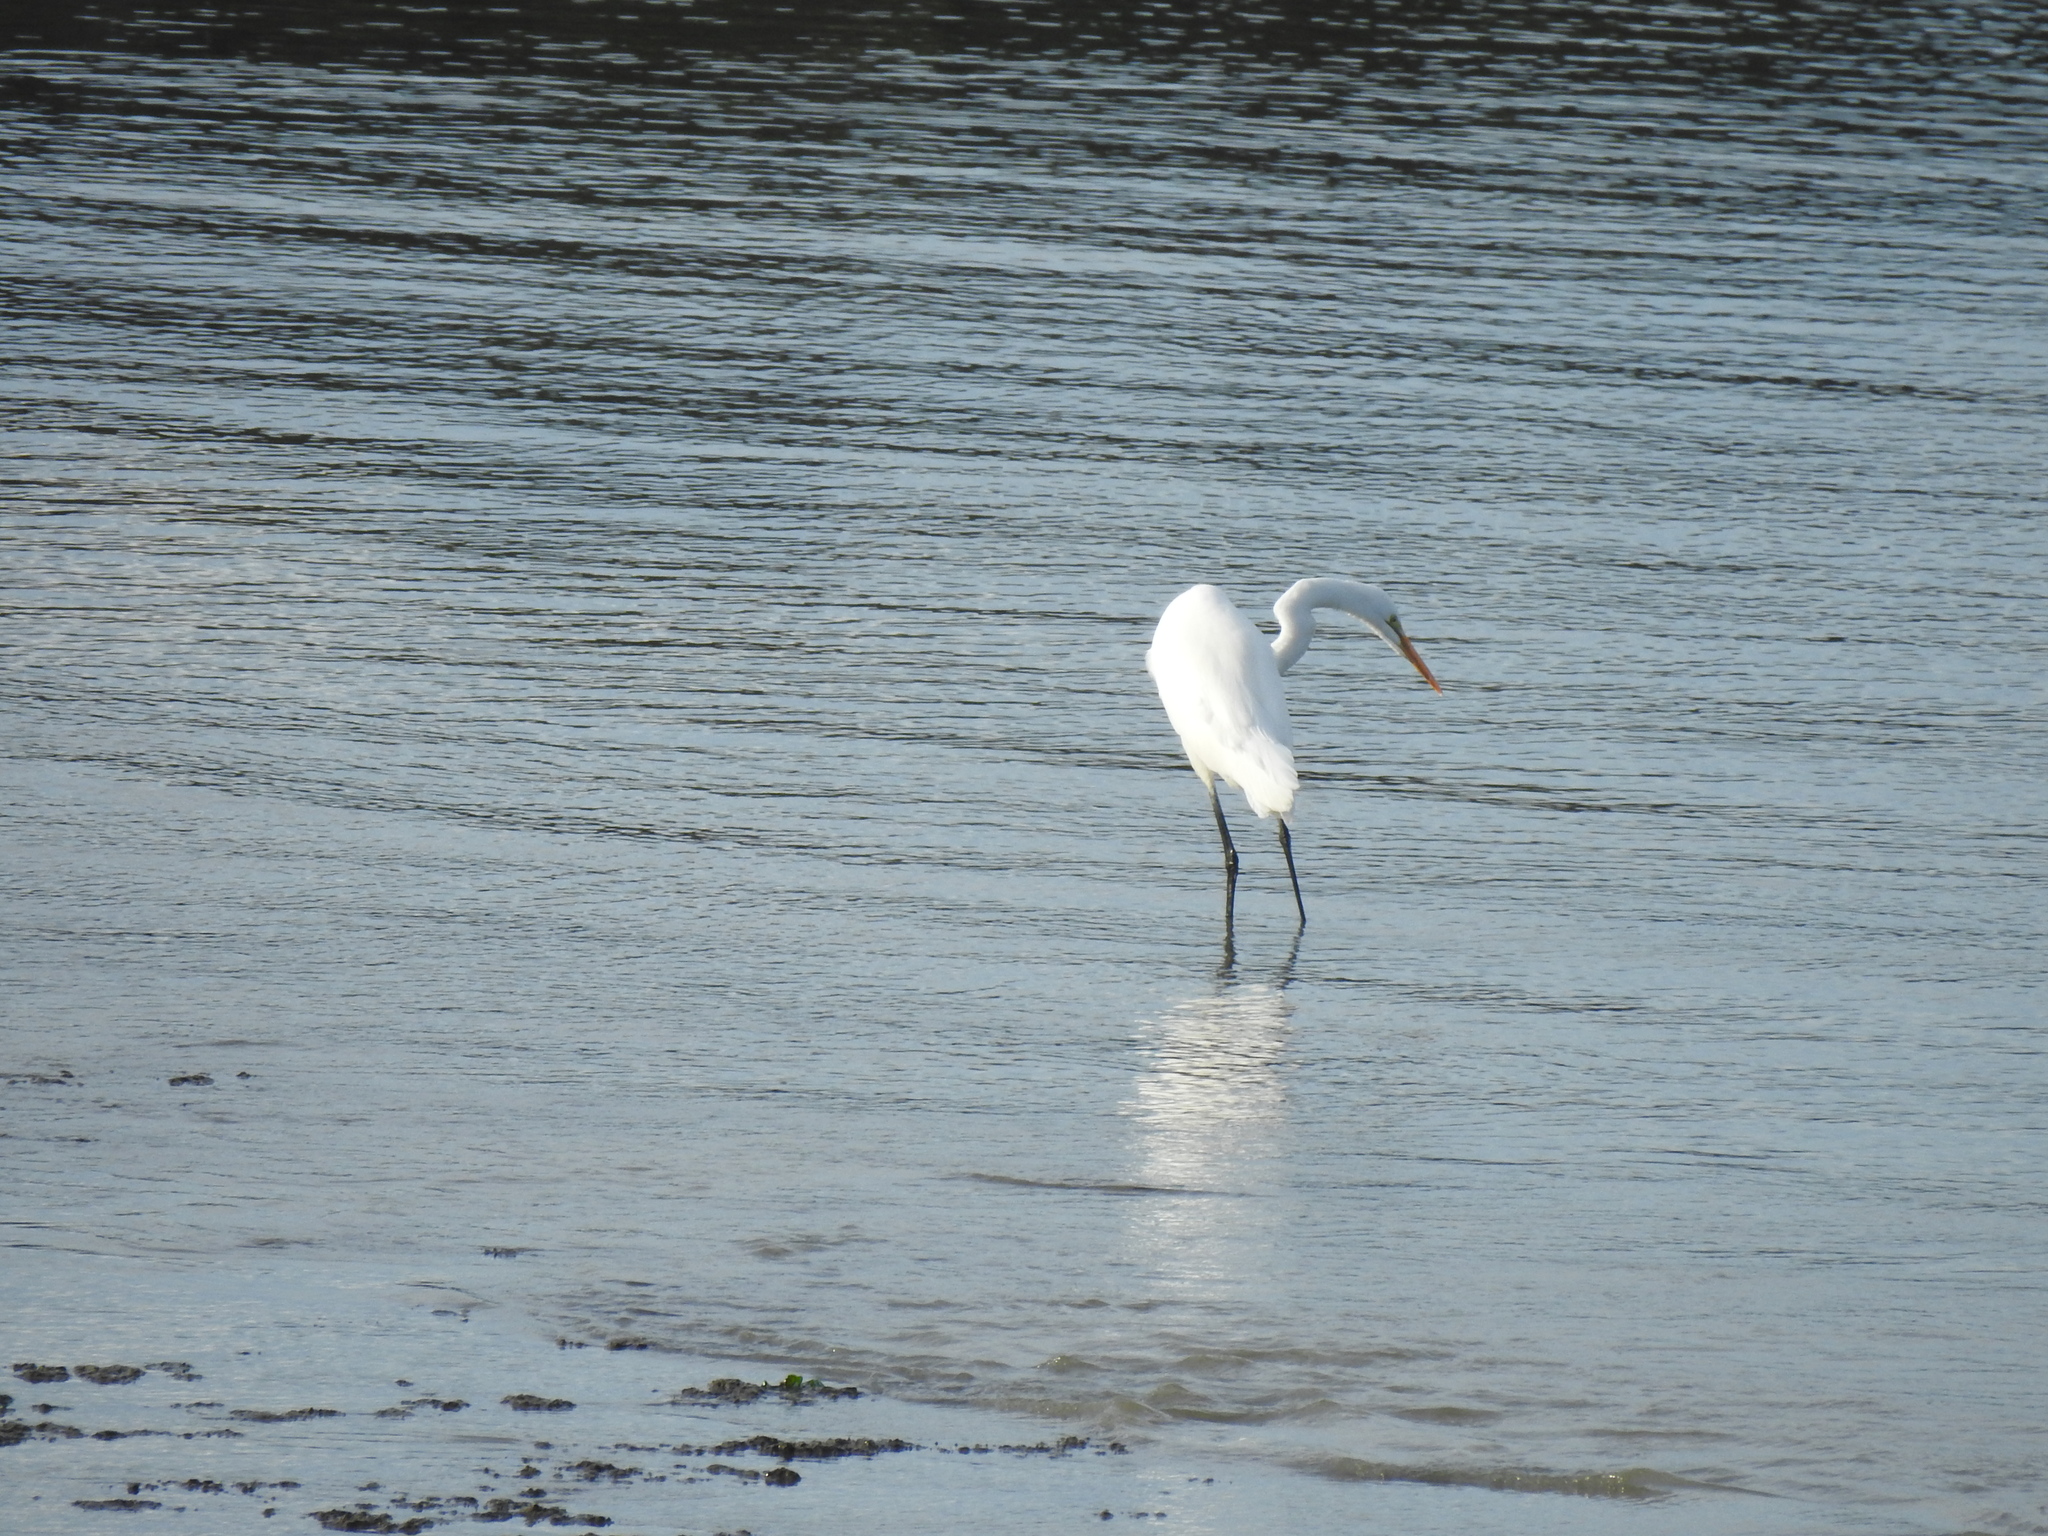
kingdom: Animalia
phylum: Chordata
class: Aves
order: Pelecaniformes
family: Ardeidae
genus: Ardea
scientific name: Ardea alba
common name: Great egret
